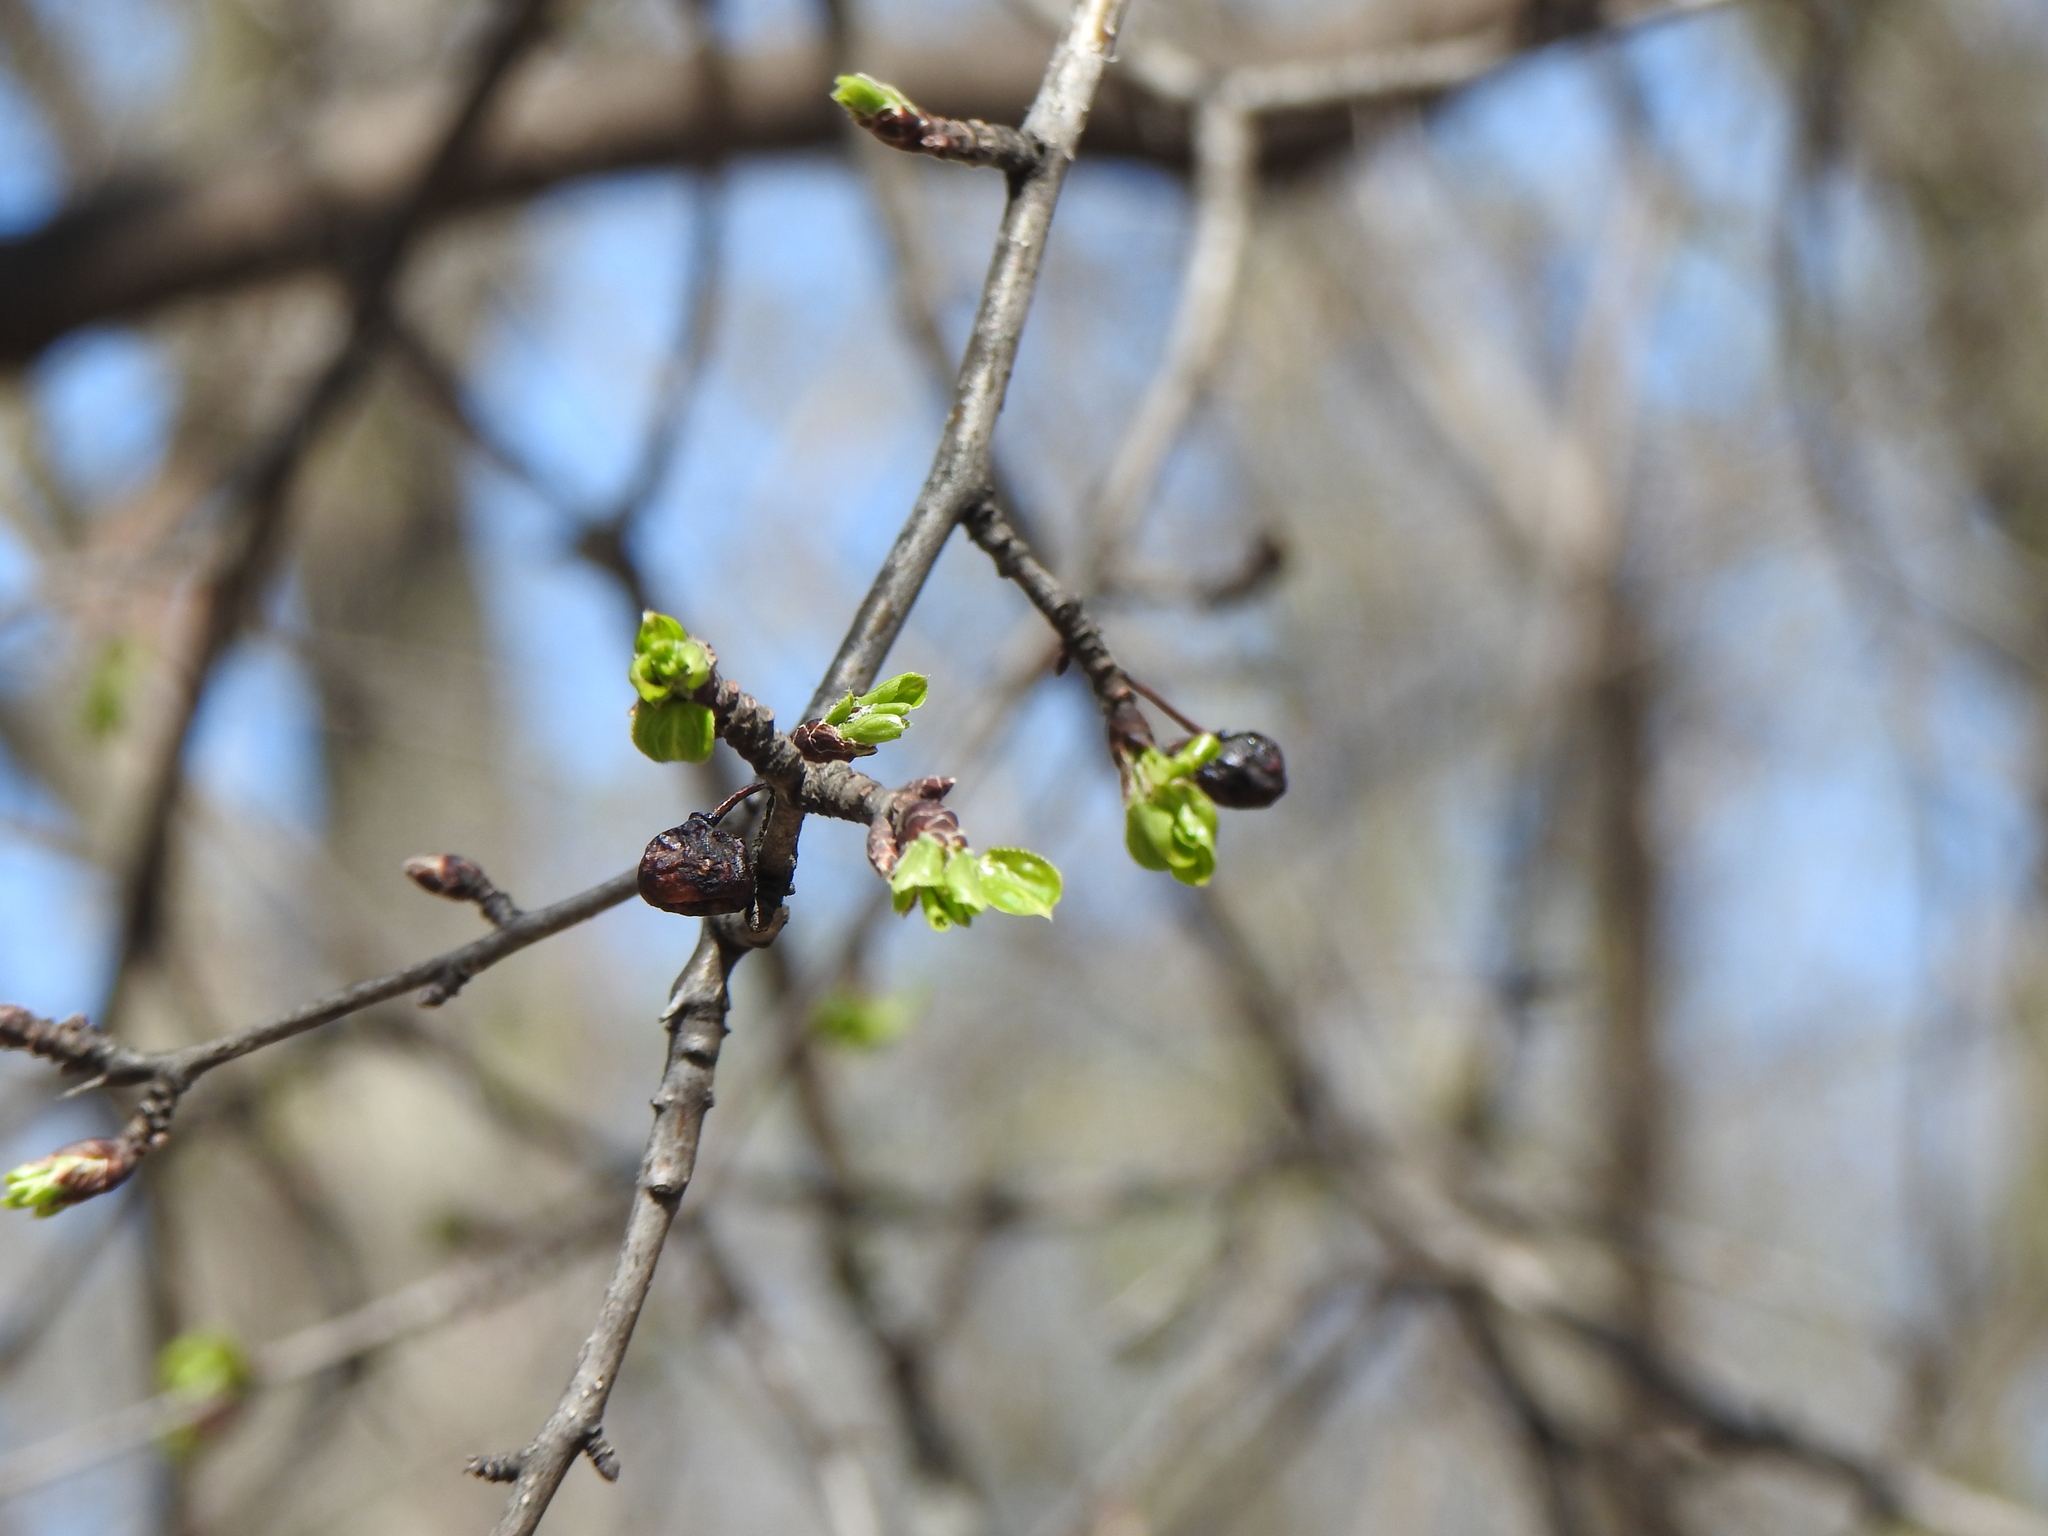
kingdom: Plantae
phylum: Tracheophyta
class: Magnoliopsida
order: Rosales
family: Rhamnaceae
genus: Rhamnus
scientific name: Rhamnus cathartica
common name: Common buckthorn
